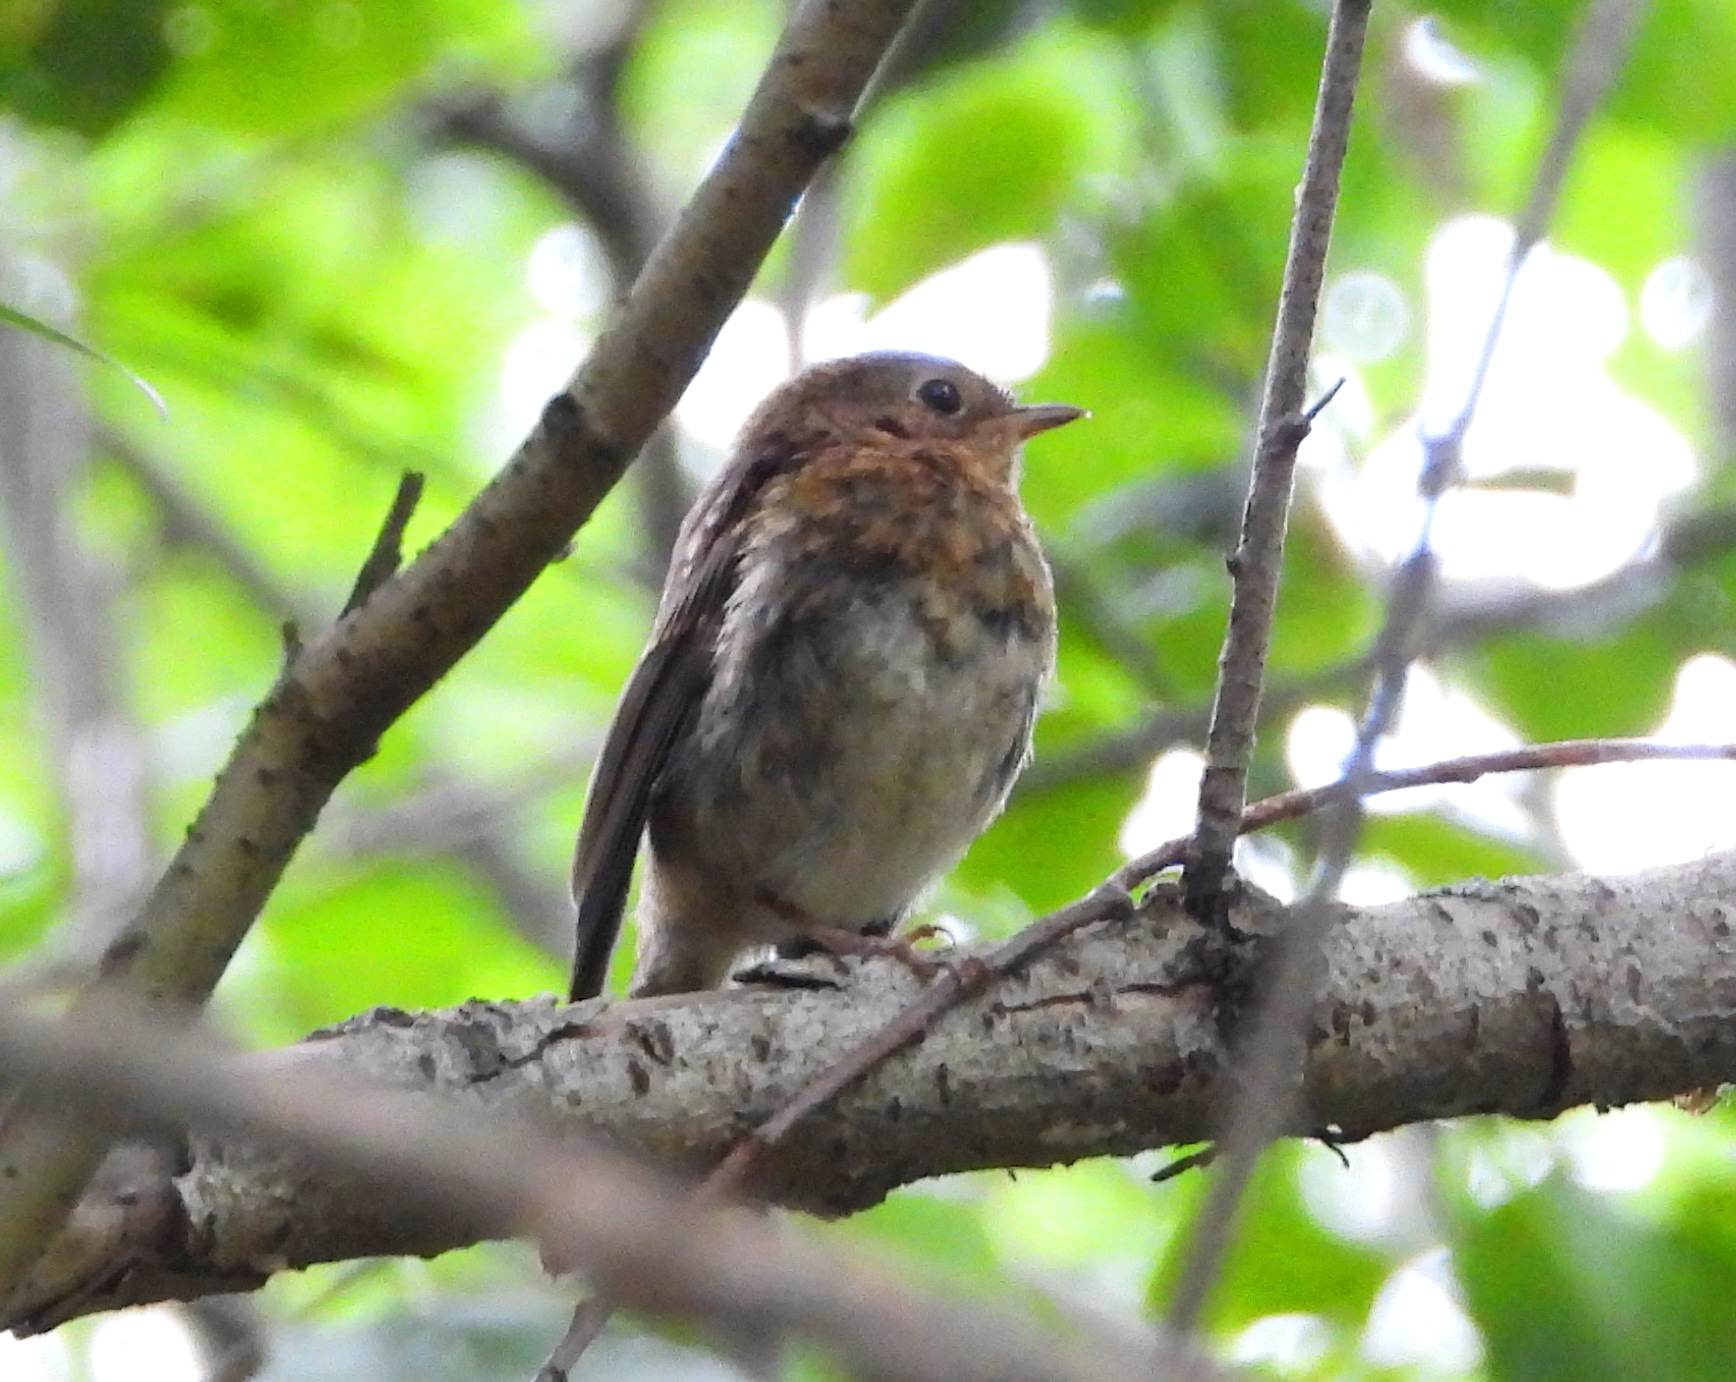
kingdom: Animalia
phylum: Chordata
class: Aves
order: Passeriformes
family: Muscicapidae
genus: Erithacus
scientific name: Erithacus rubecula
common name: European robin
